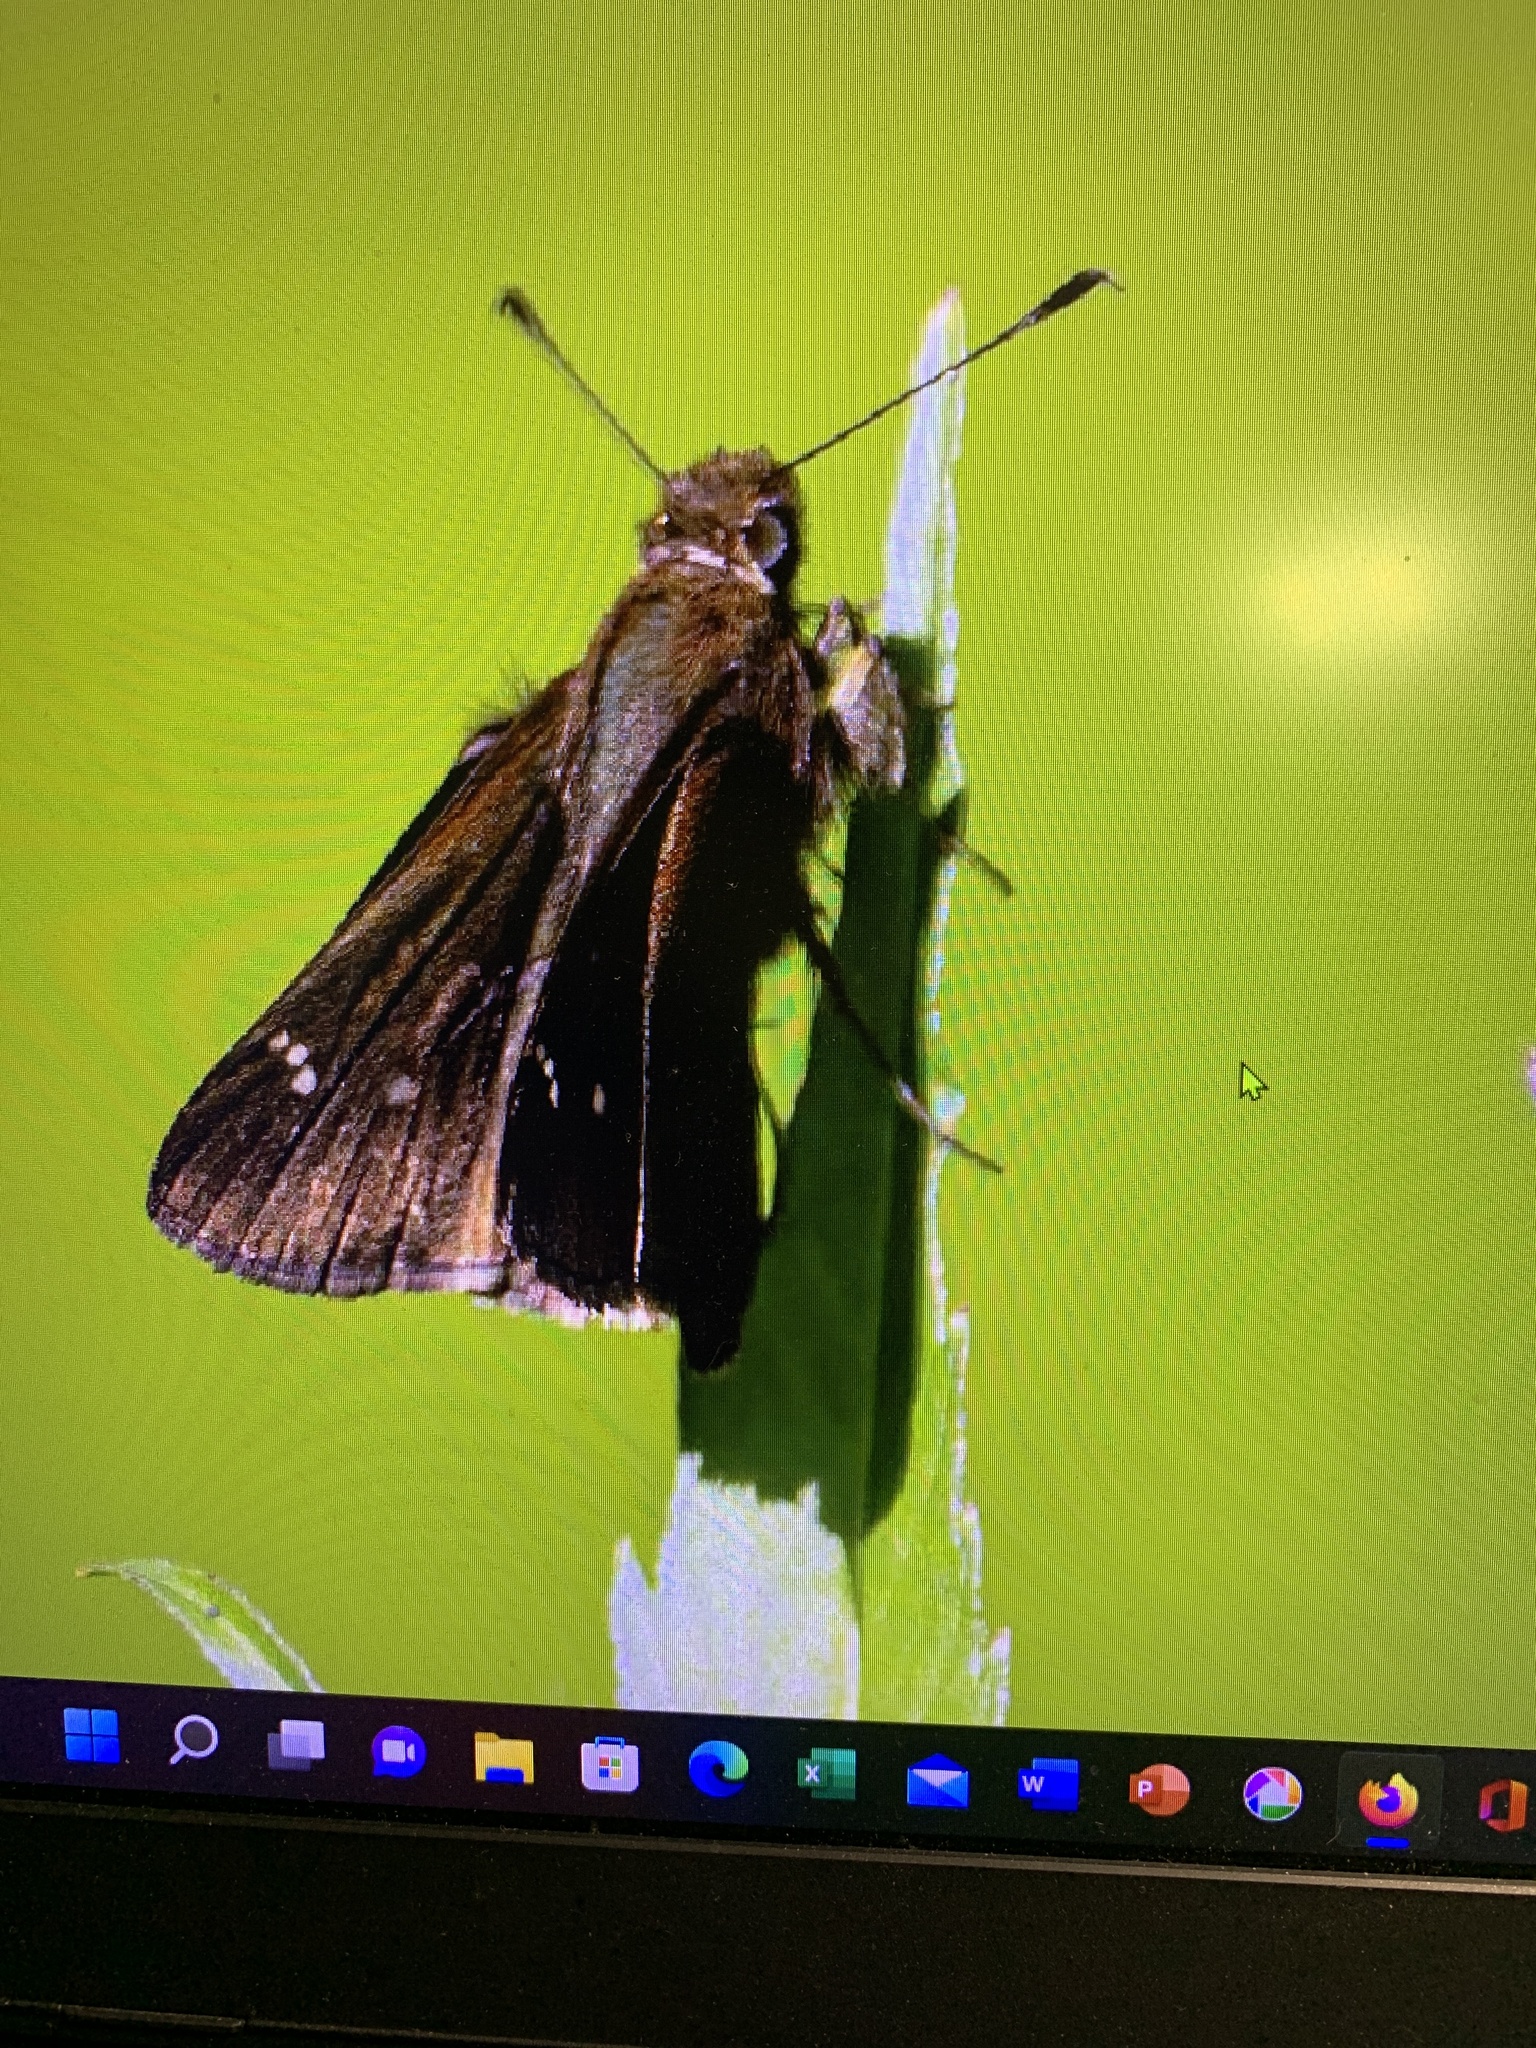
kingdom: Animalia
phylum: Arthropoda
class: Insecta
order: Lepidoptera
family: Hesperiidae
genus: Lerema
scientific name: Lerema accius
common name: Clouded skipper
